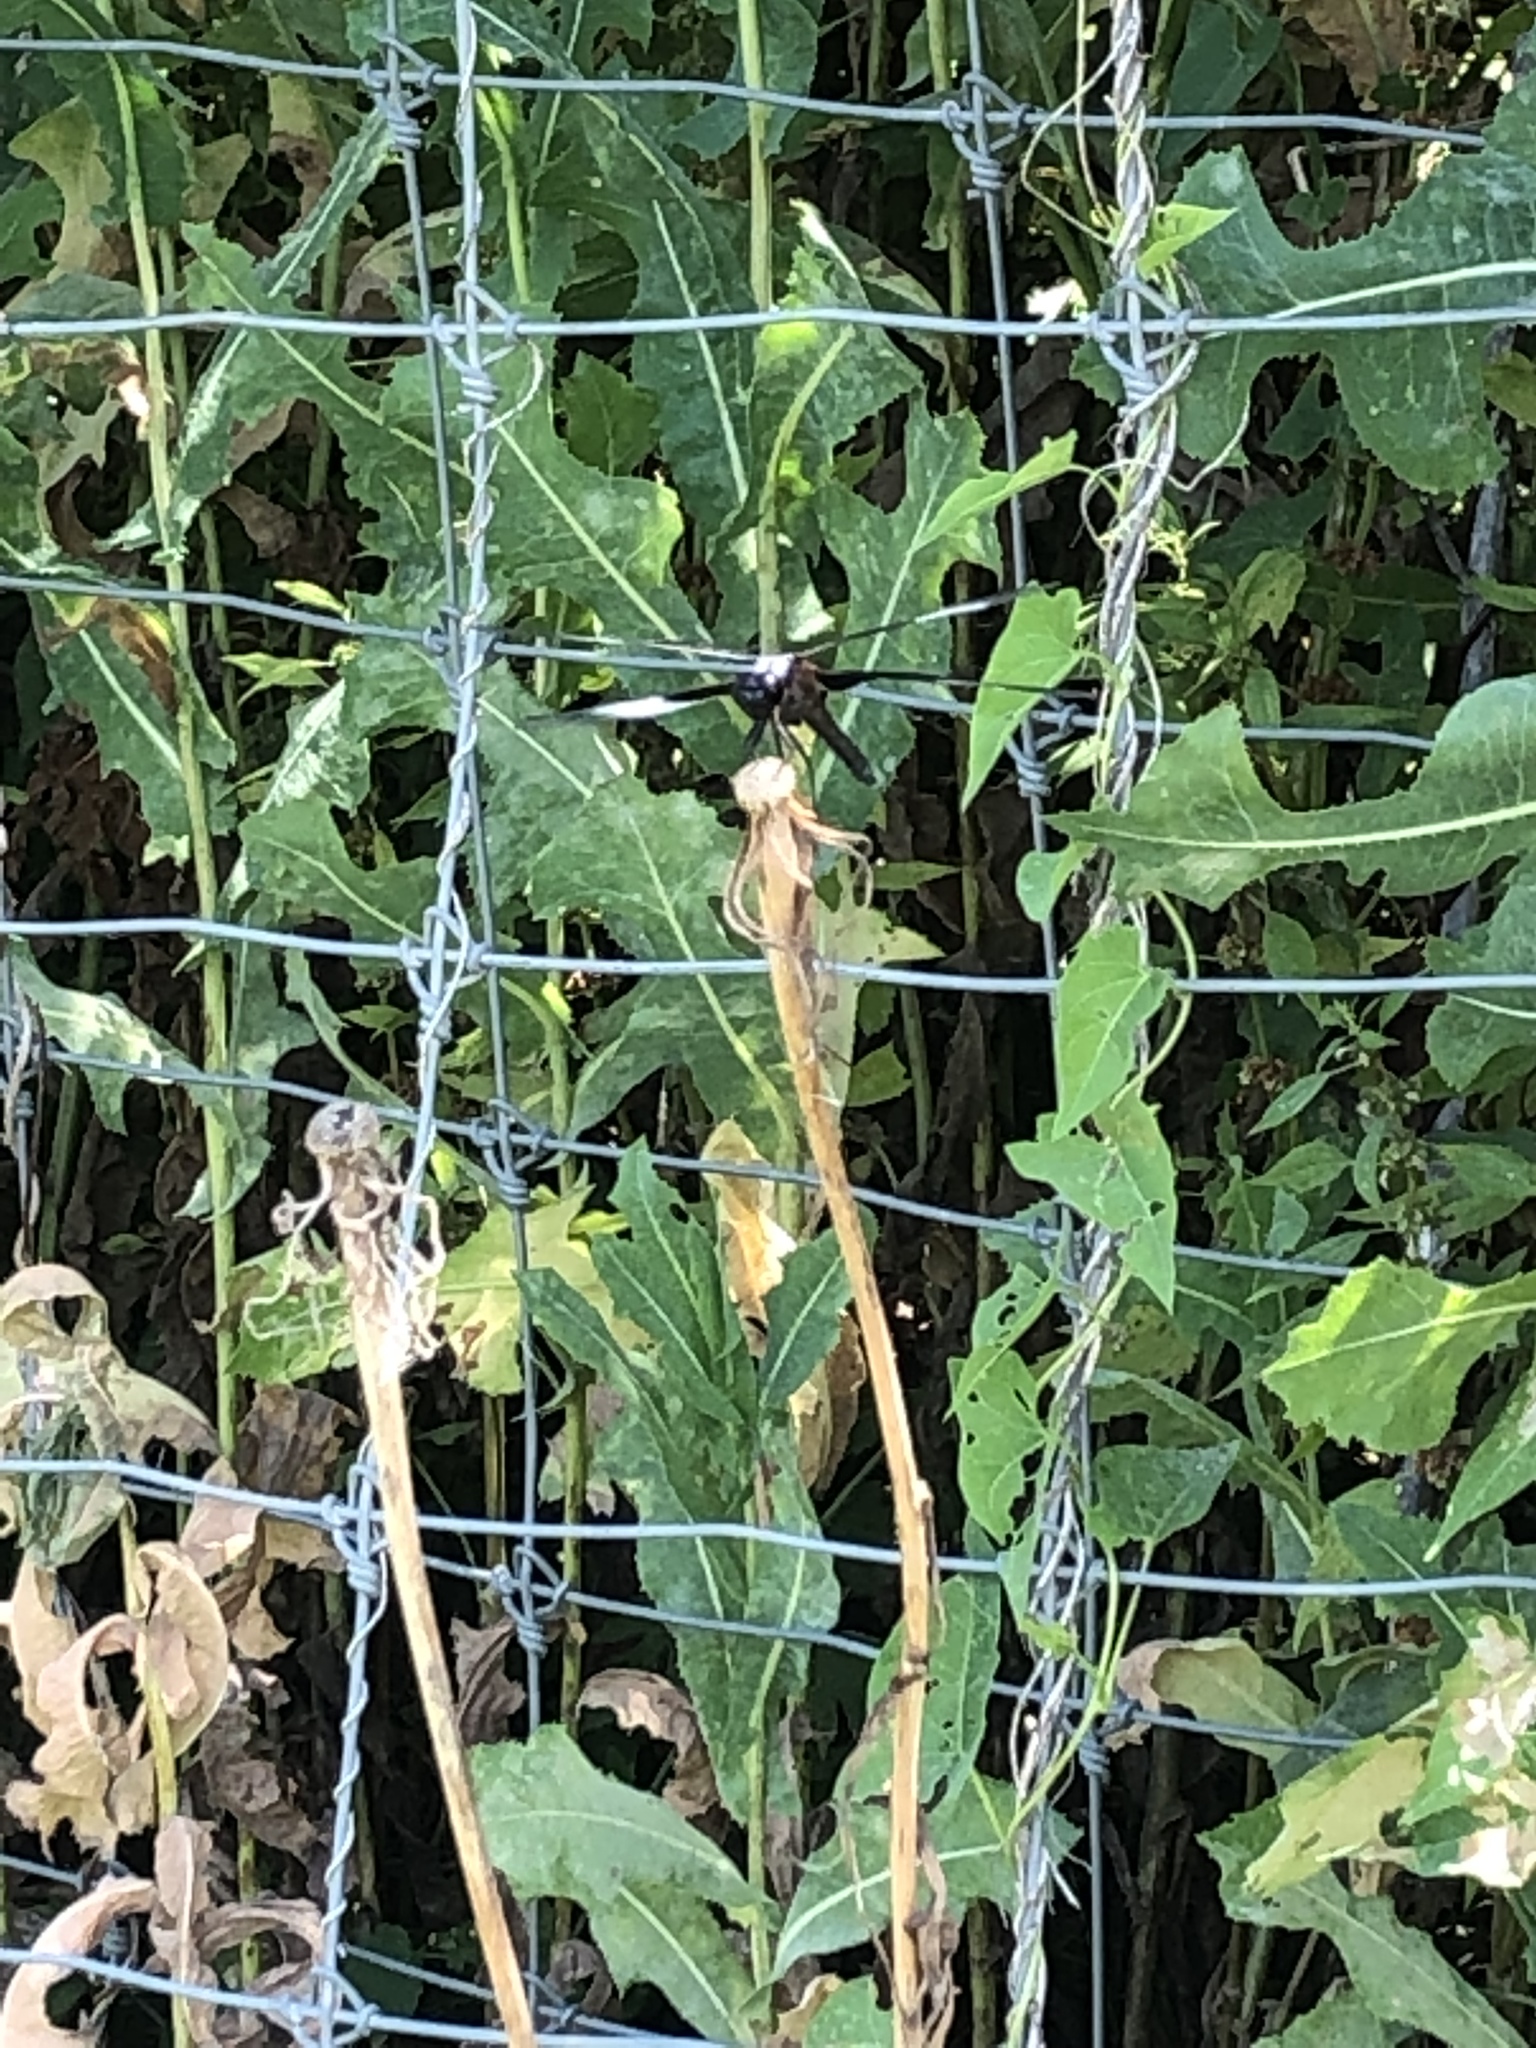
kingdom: Animalia
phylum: Arthropoda
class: Insecta
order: Odonata
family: Libellulidae
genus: Libellula
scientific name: Libellula luctuosa
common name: Widow skimmer
